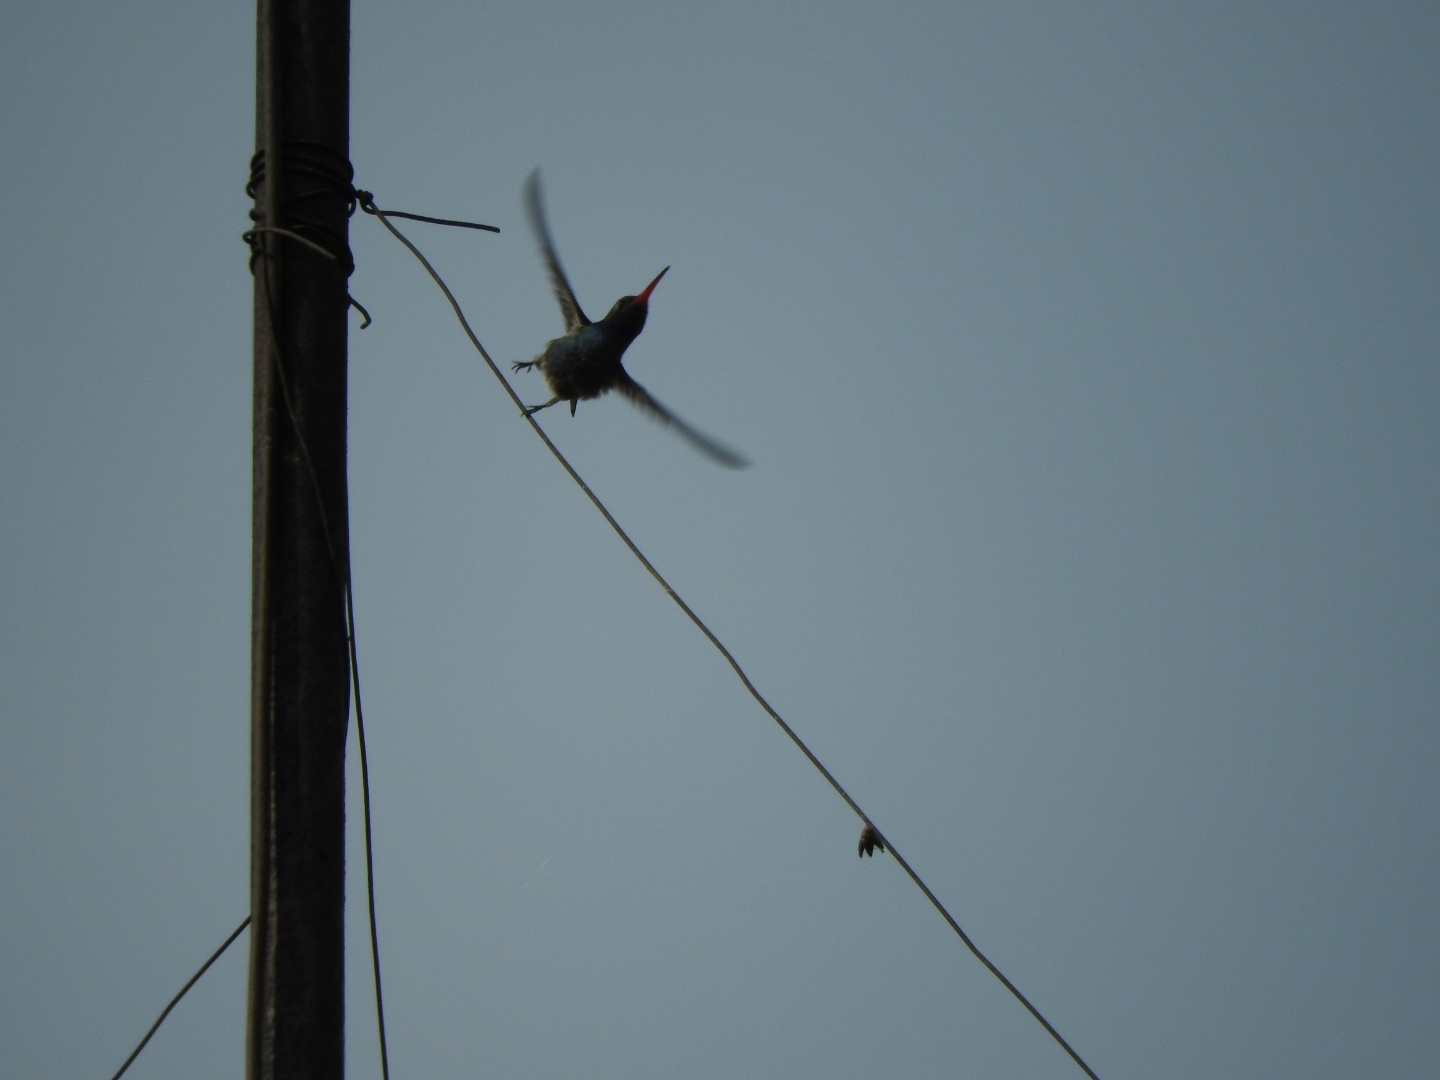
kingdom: Animalia
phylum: Chordata
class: Aves
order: Apodiformes
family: Trochilidae
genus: Cynanthus
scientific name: Cynanthus latirostris
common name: Broad-billed hummingbird
